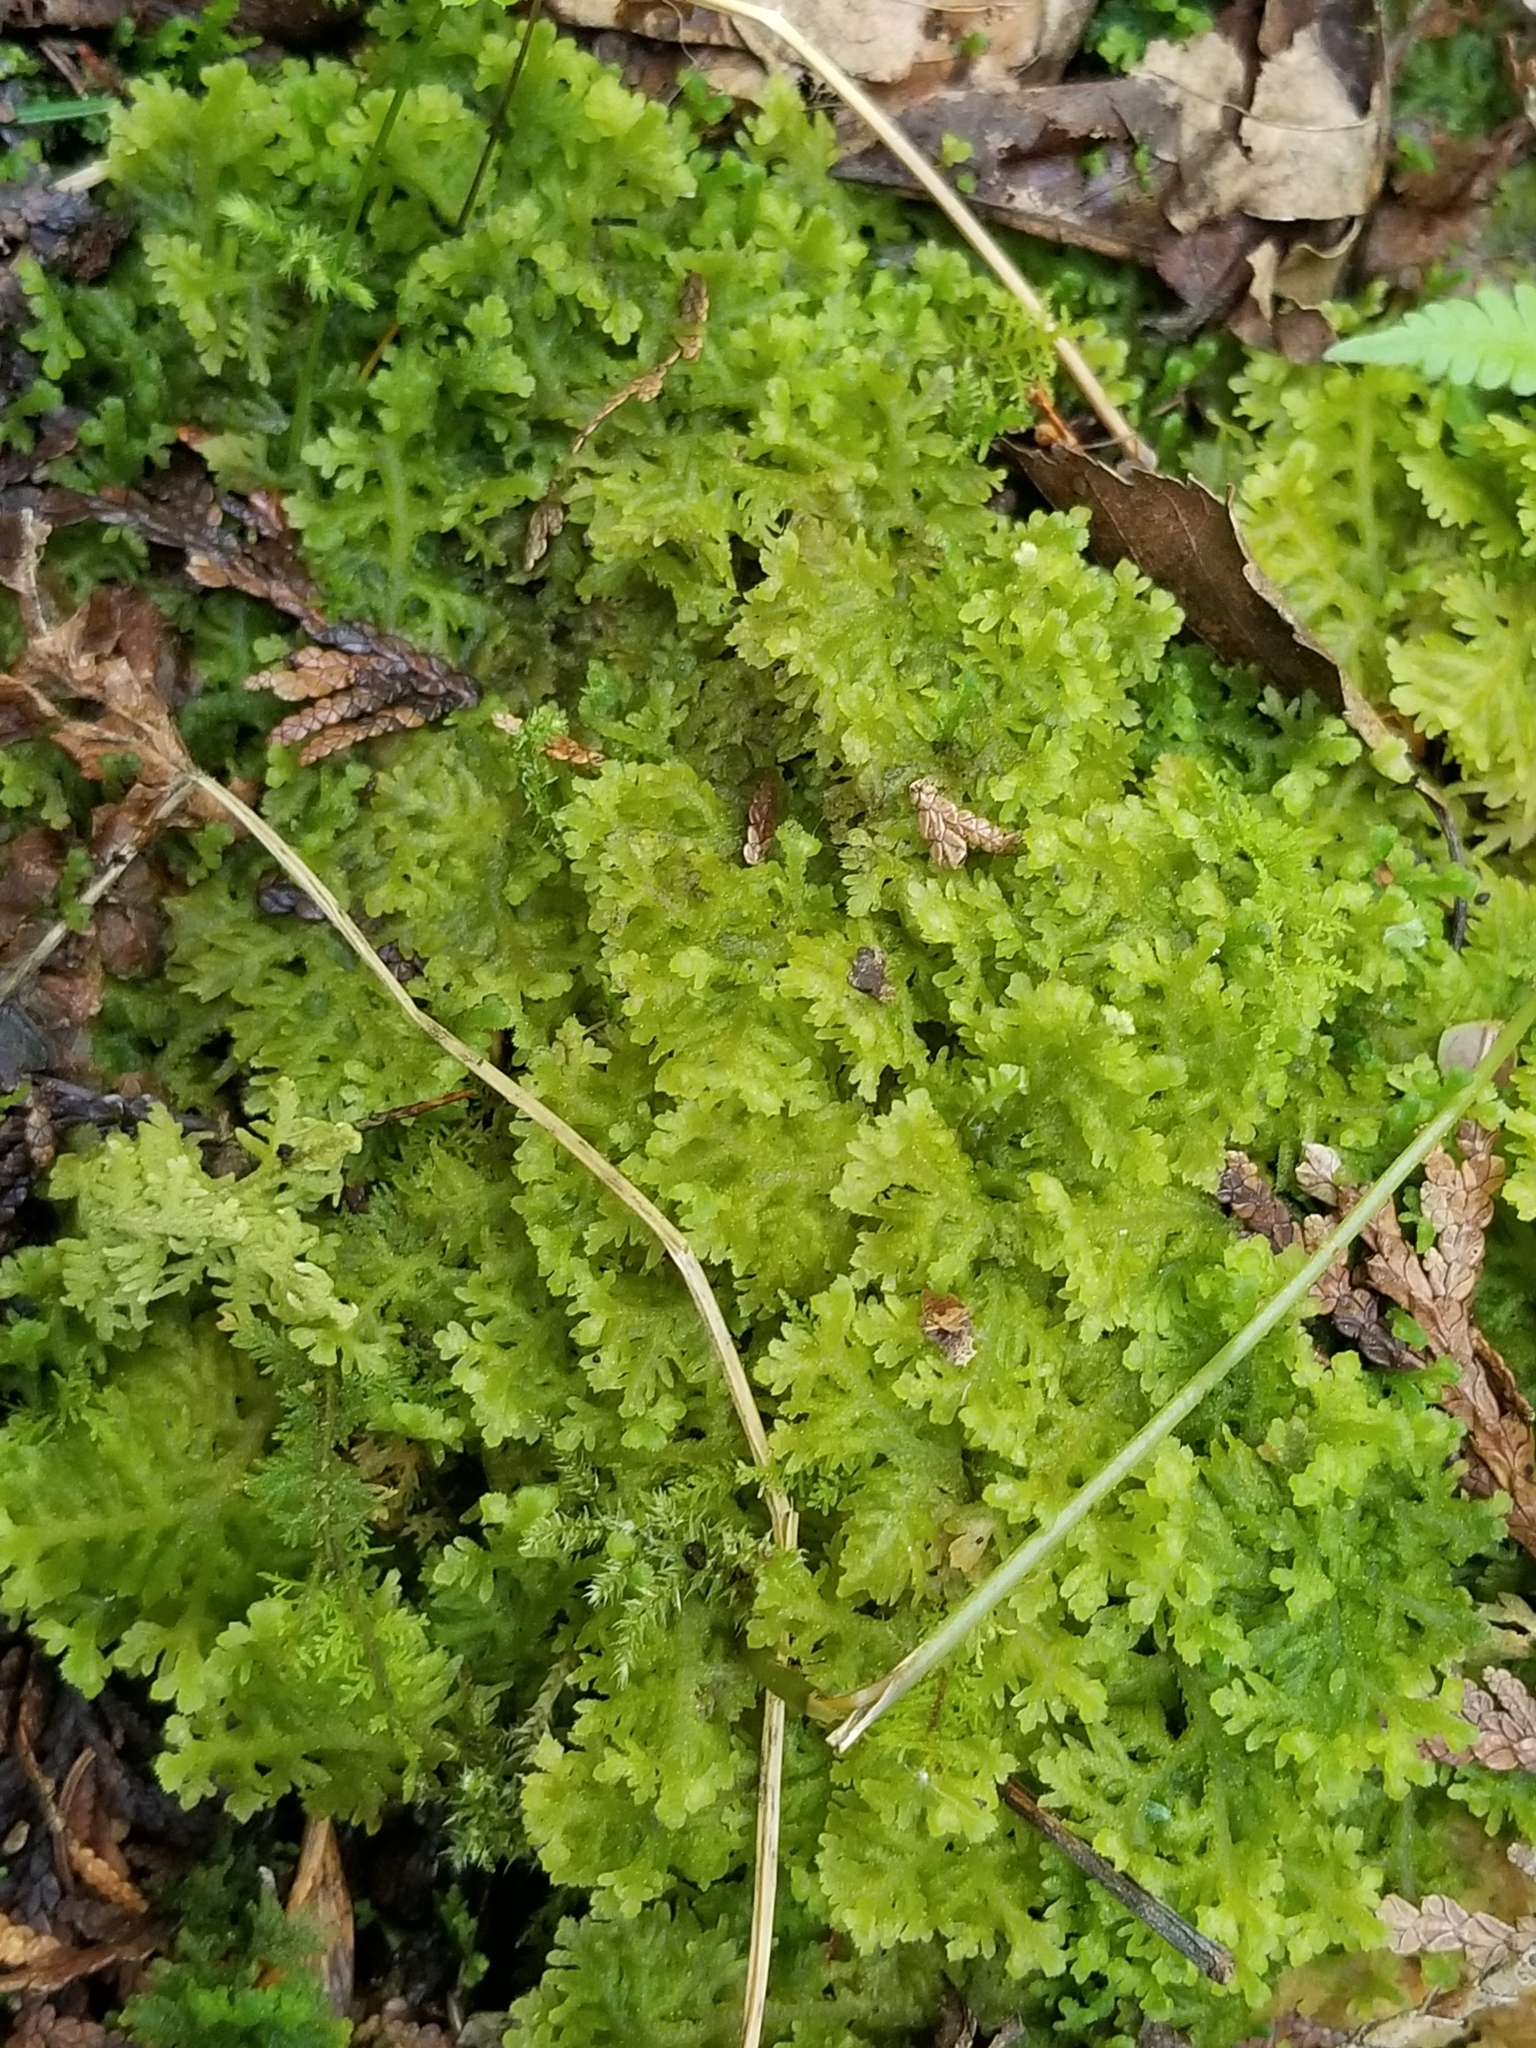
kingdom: Plantae
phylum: Marchantiophyta
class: Jungermanniopsida
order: Jungermanniales
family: Trichocoleaceae
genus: Trichocolea
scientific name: Trichocolea tomentella
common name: Woolly liverwort
